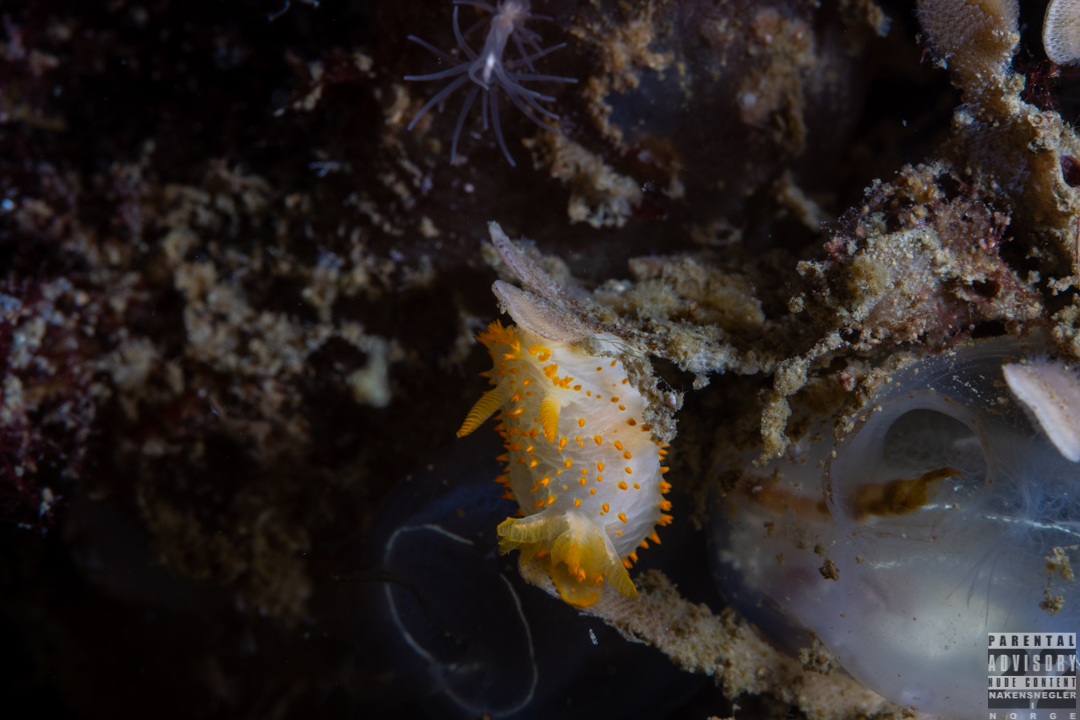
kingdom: Animalia
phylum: Mollusca
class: Gastropoda
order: Nudibranchia
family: Polyceridae
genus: Crimora
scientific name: Crimora papillata
